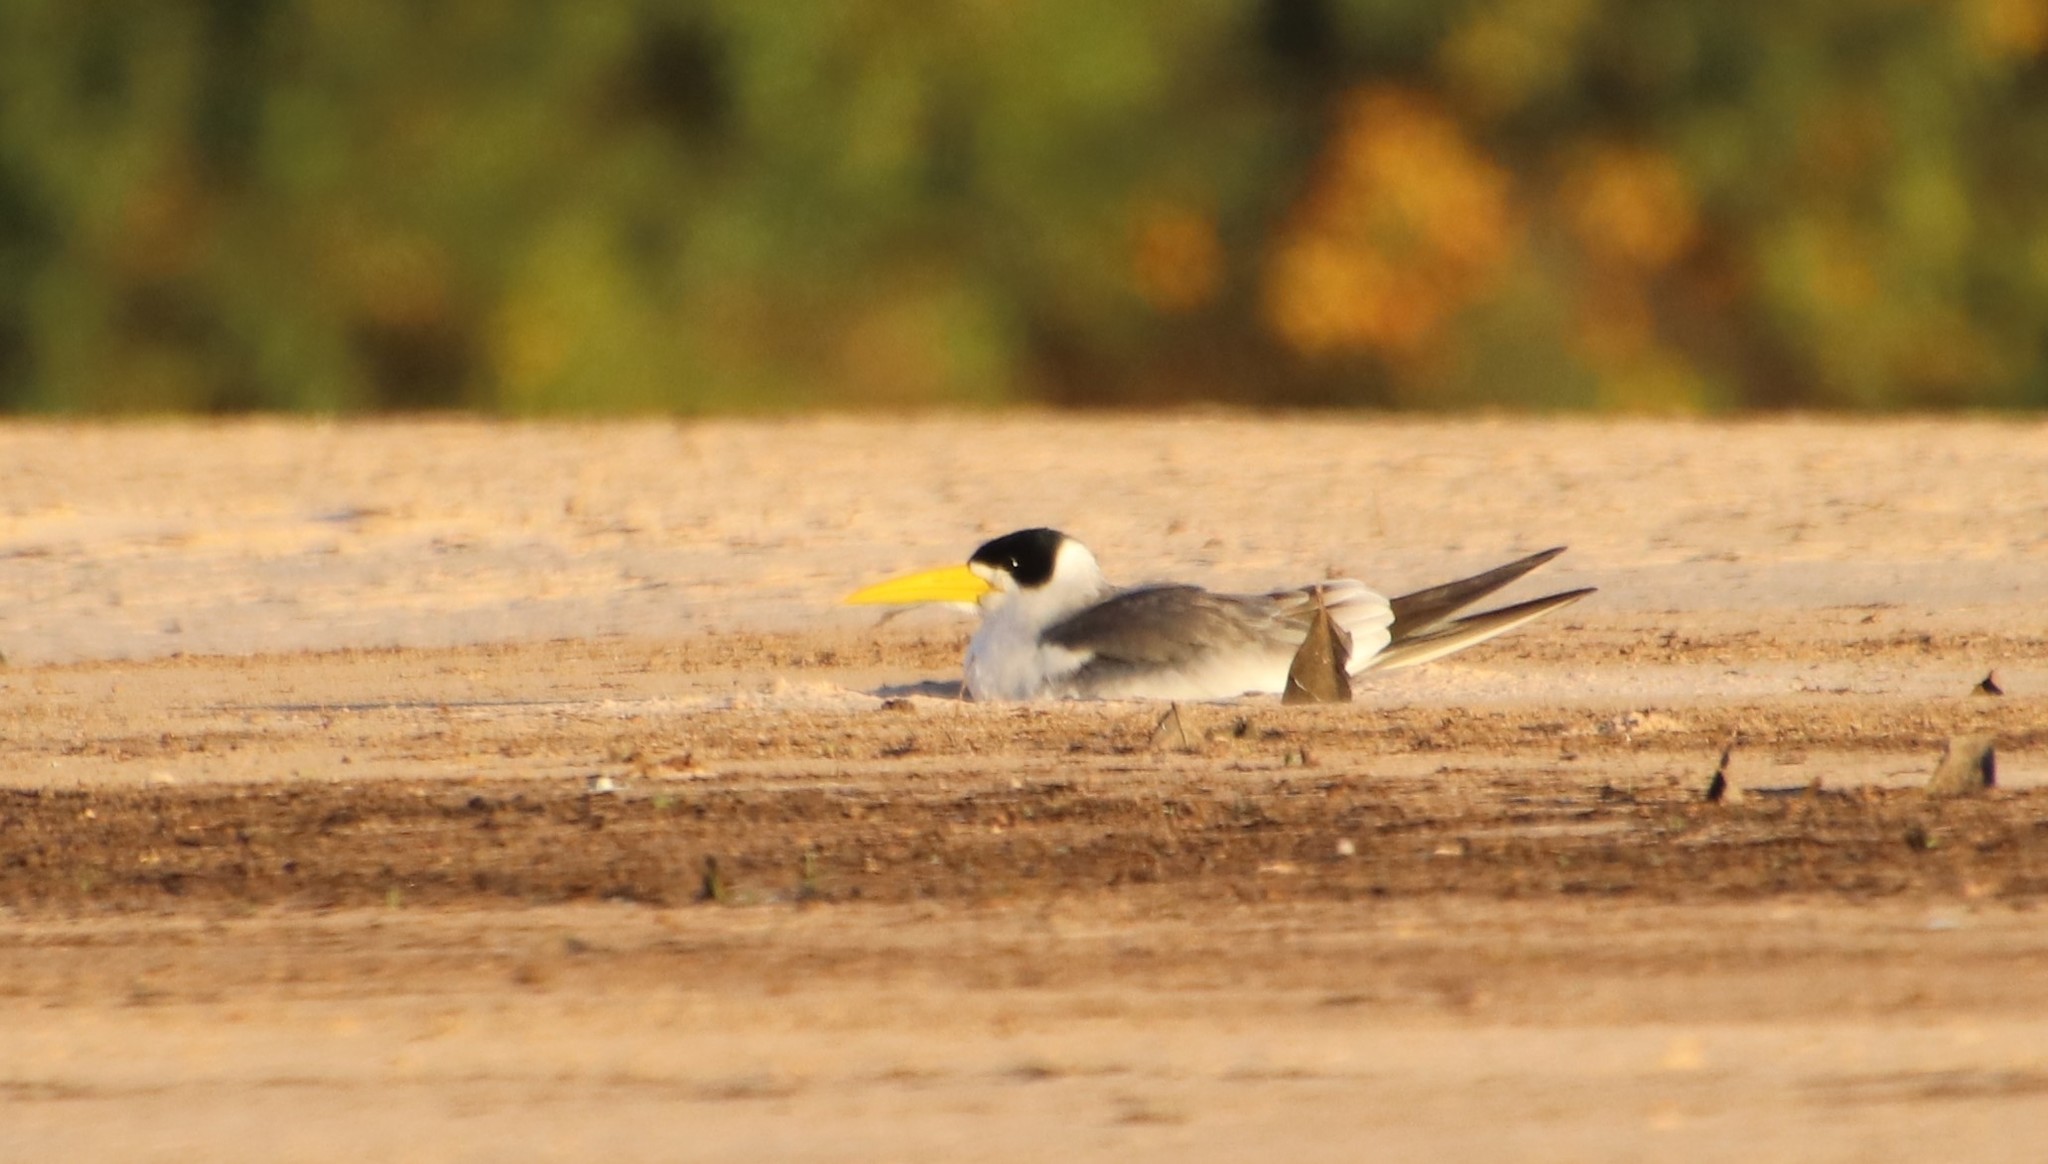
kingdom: Animalia
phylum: Chordata
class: Aves
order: Charadriiformes
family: Laridae
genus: Phaetusa
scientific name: Phaetusa simplex
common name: Large-billed tern
